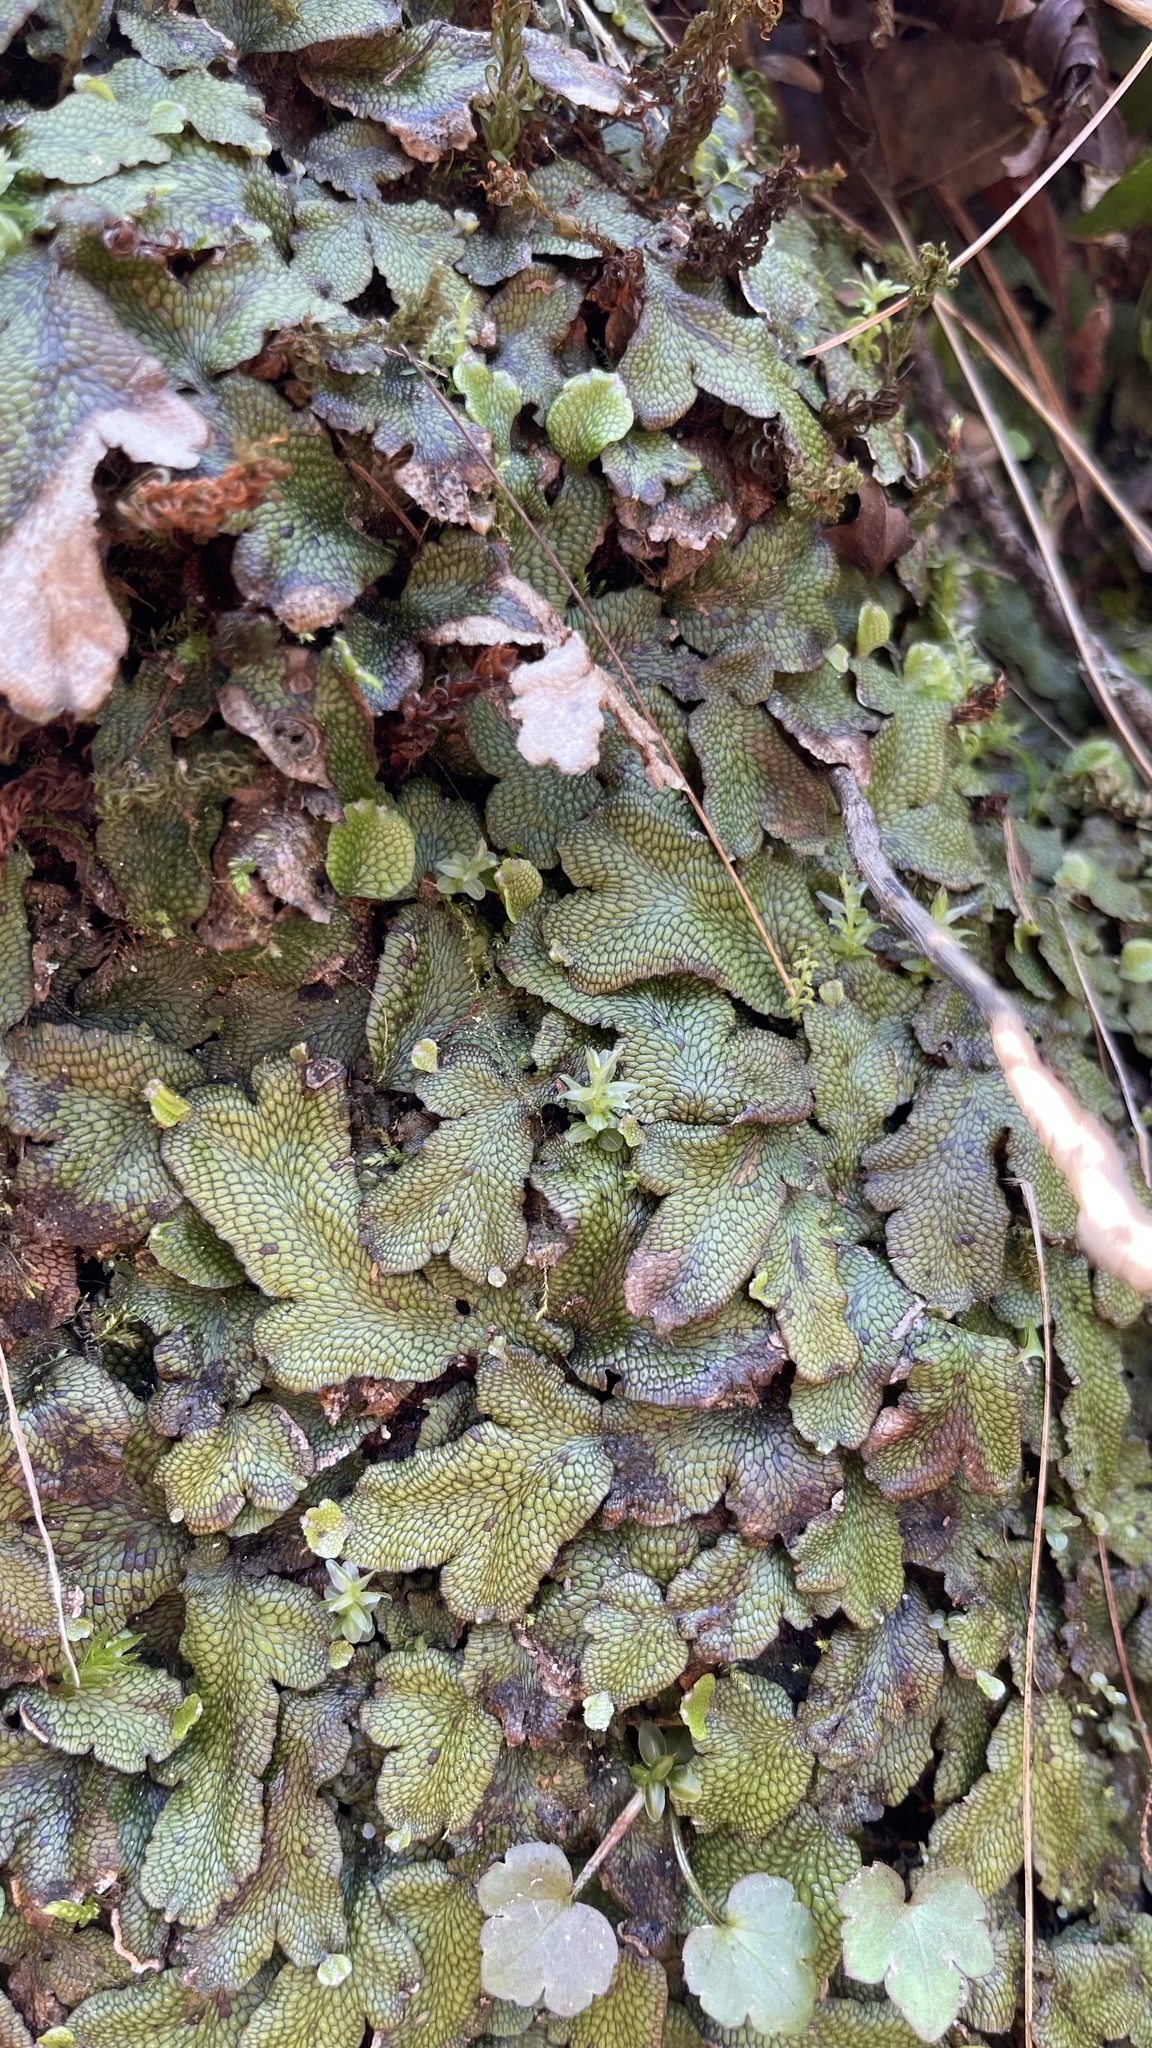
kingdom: Plantae
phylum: Marchantiophyta
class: Marchantiopsida
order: Marchantiales
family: Conocephalaceae
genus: Conocephalum
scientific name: Conocephalum salebrosum
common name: Cat-tongue liverwort
